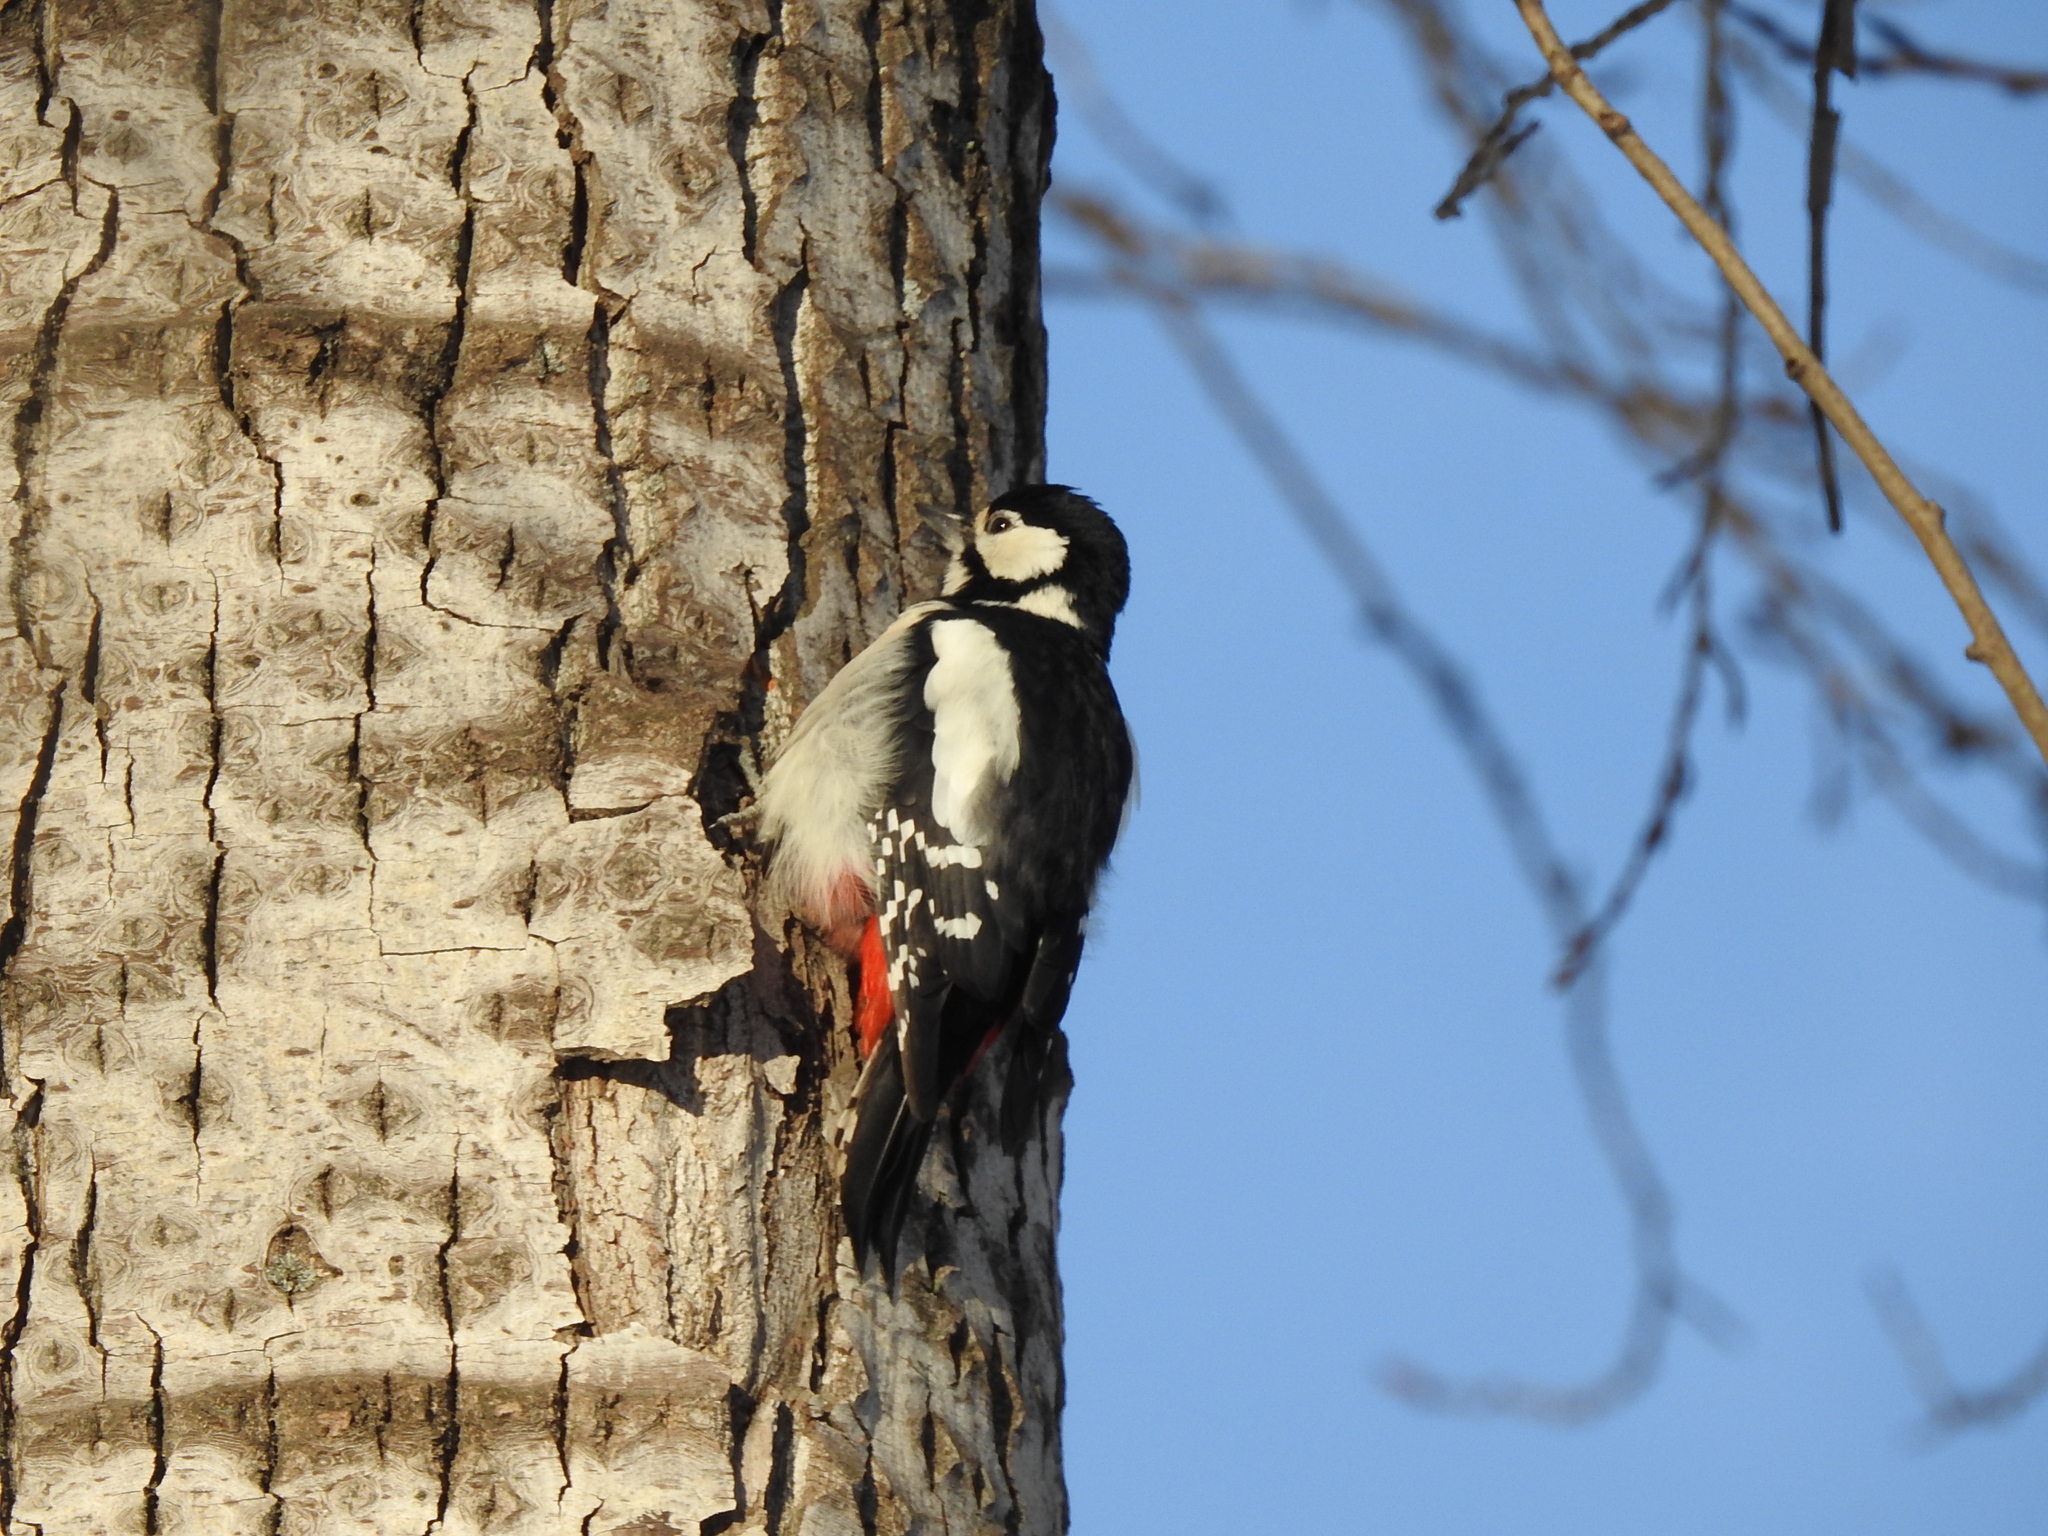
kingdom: Animalia
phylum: Chordata
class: Aves
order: Piciformes
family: Picidae
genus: Dendrocopos
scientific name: Dendrocopos major
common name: Great spotted woodpecker
